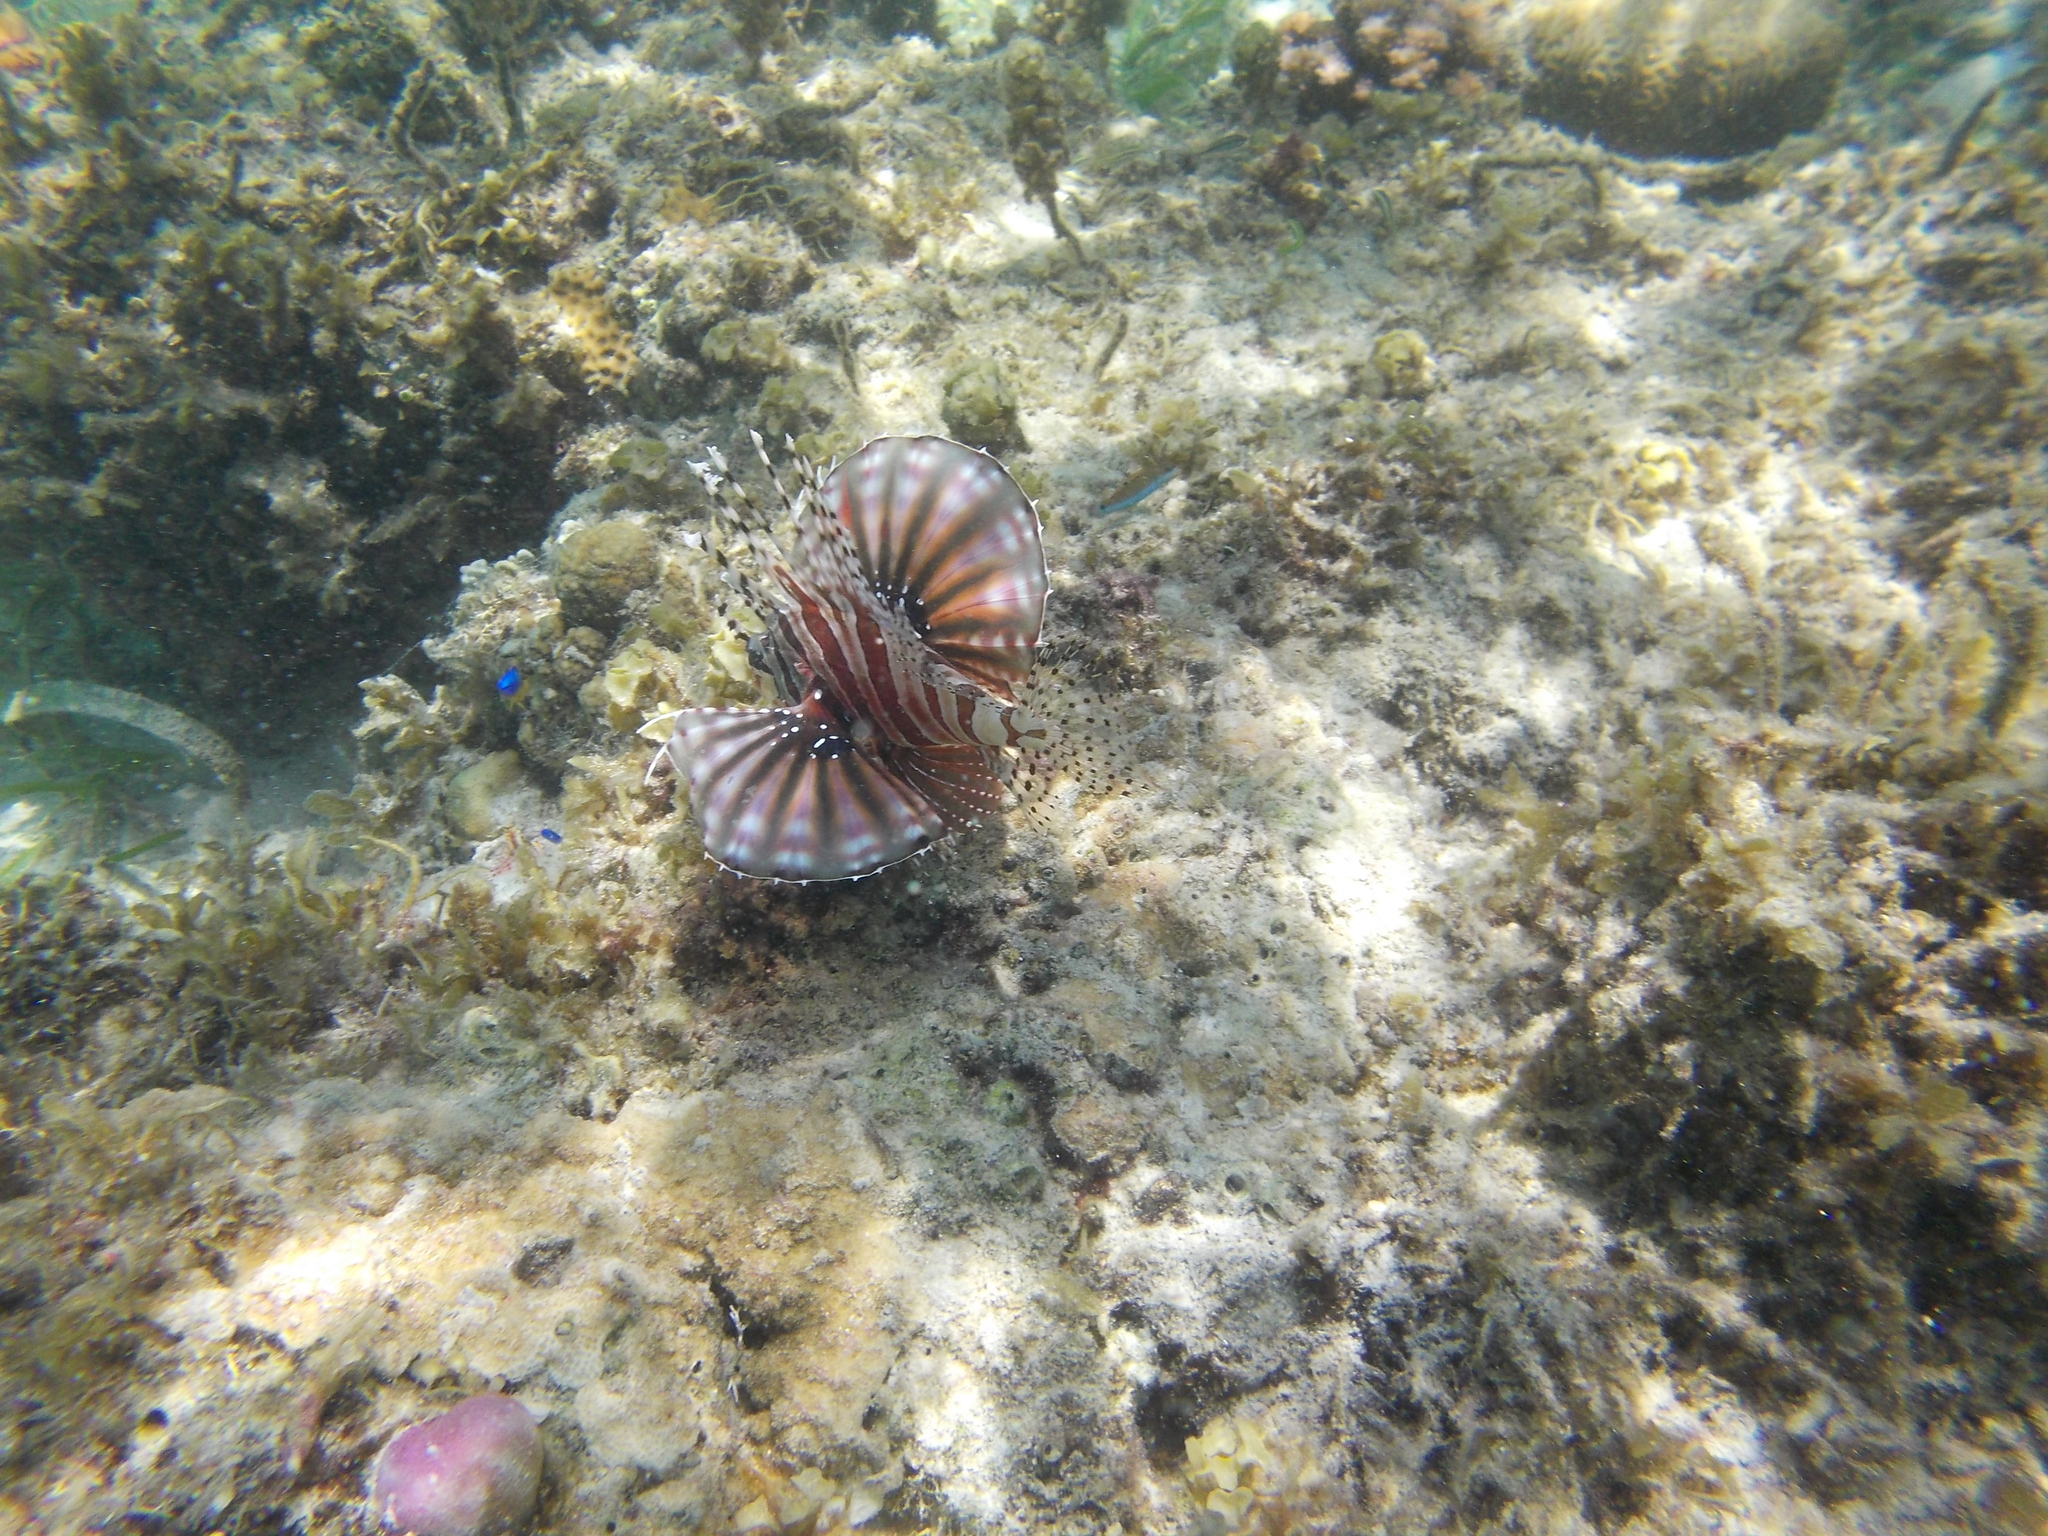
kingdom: Animalia
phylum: Chordata
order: Scorpaeniformes
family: Scorpaenidae
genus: Dendrochirus
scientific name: Dendrochirus zebra
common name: Zebra lionfish
